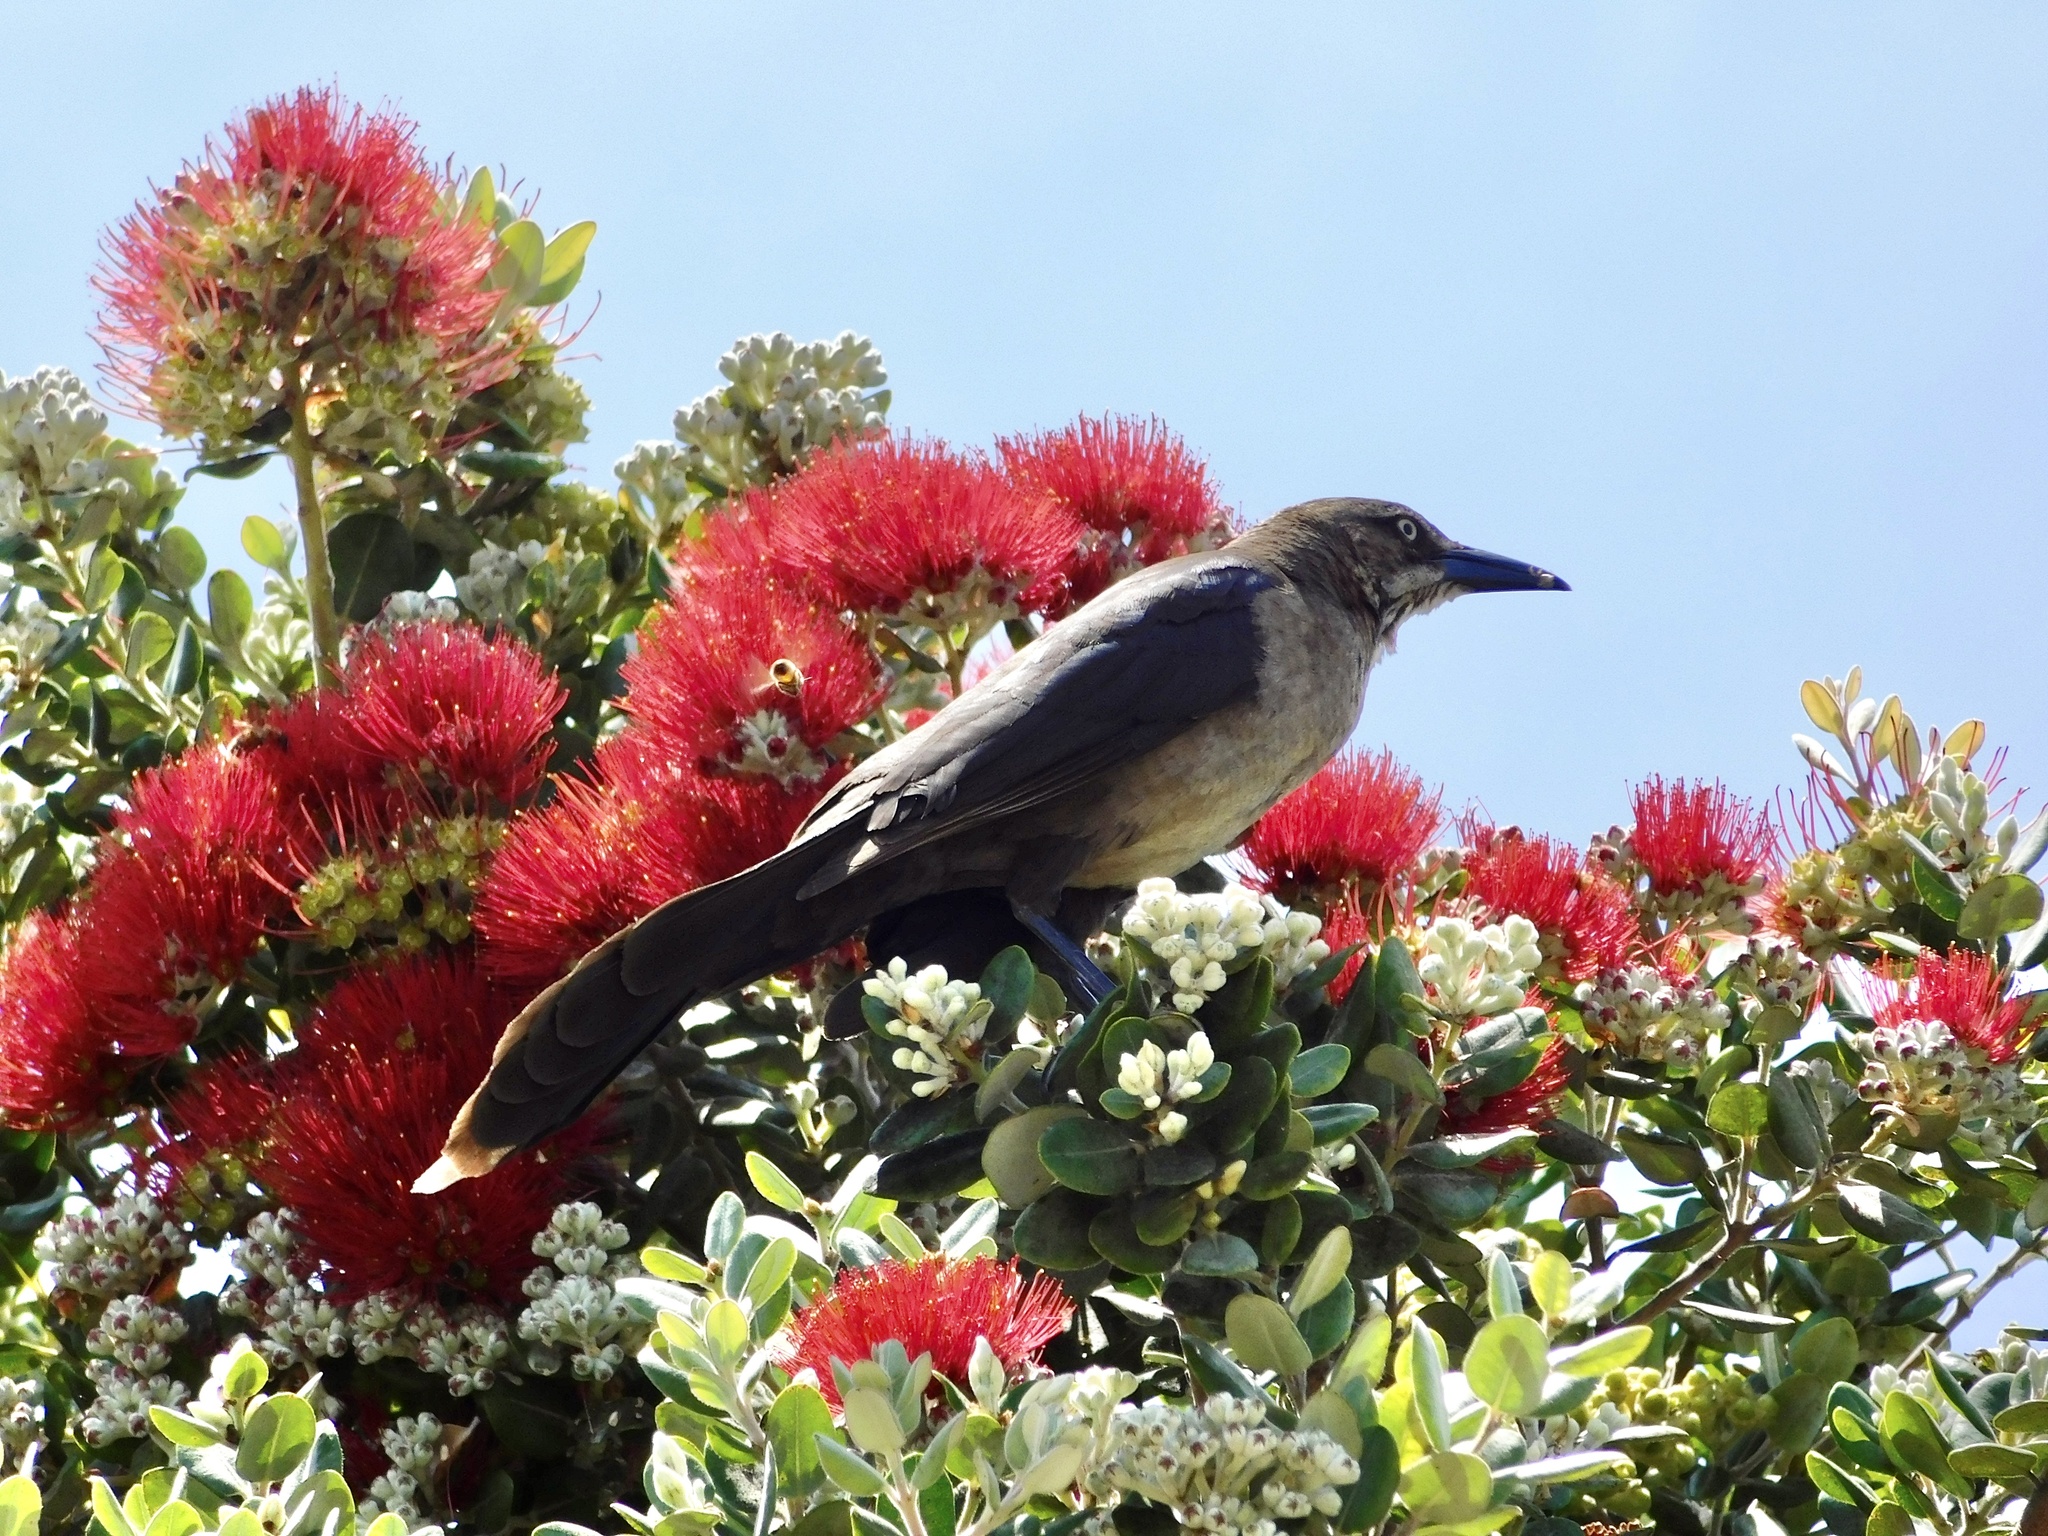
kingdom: Animalia
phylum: Chordata
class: Aves
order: Passeriformes
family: Icteridae
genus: Quiscalus
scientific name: Quiscalus mexicanus
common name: Great-tailed grackle
